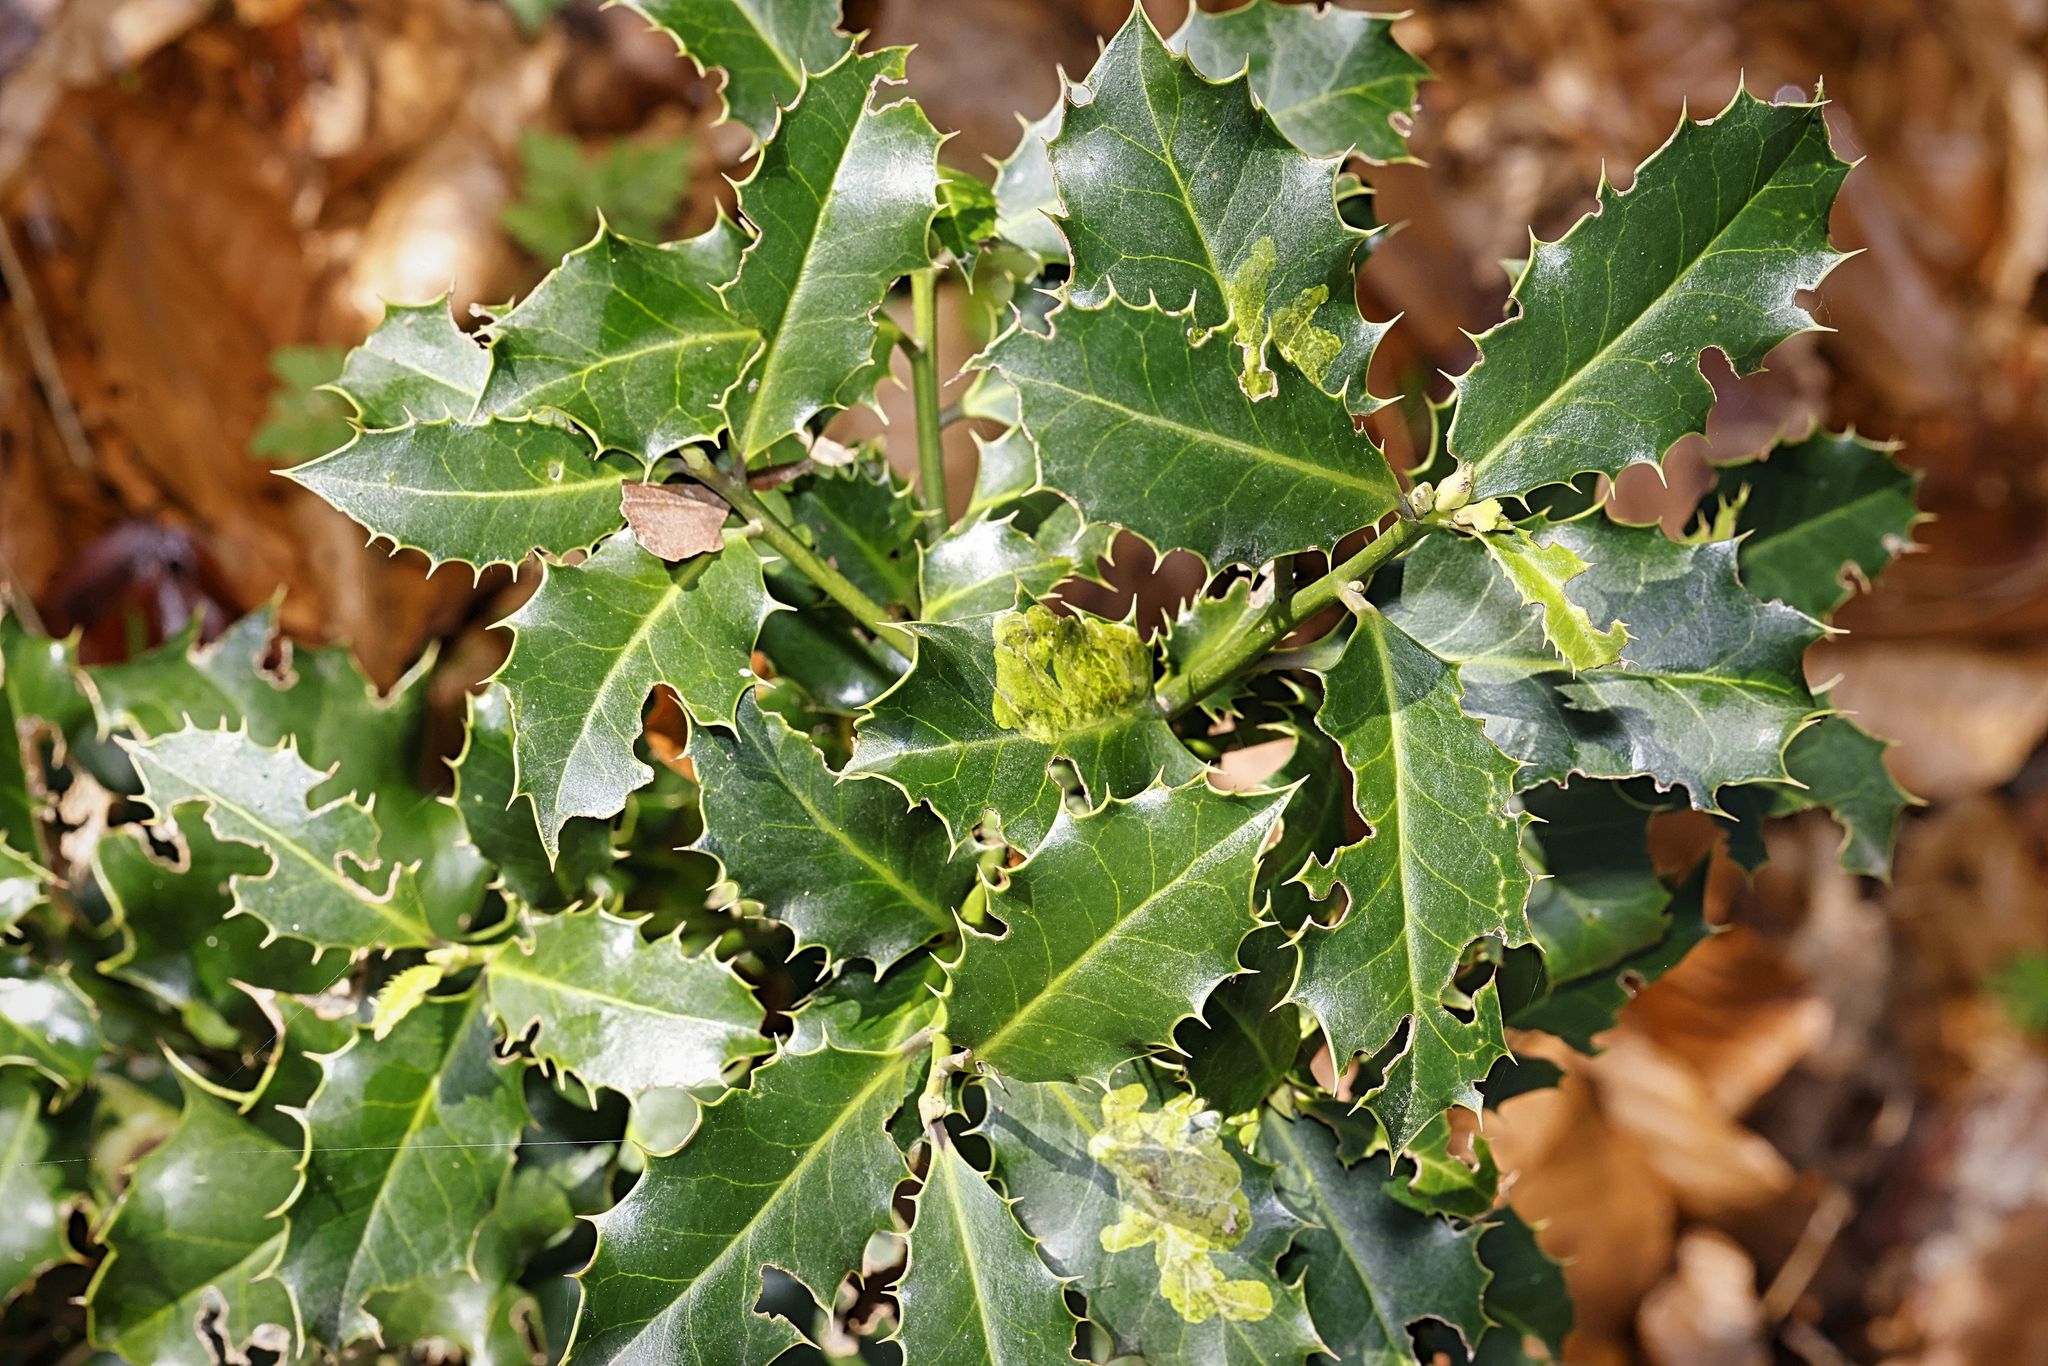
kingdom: Plantae
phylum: Tracheophyta
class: Magnoliopsida
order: Aquifoliales
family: Aquifoliaceae
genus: Ilex
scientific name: Ilex aquifolium
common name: English holly
